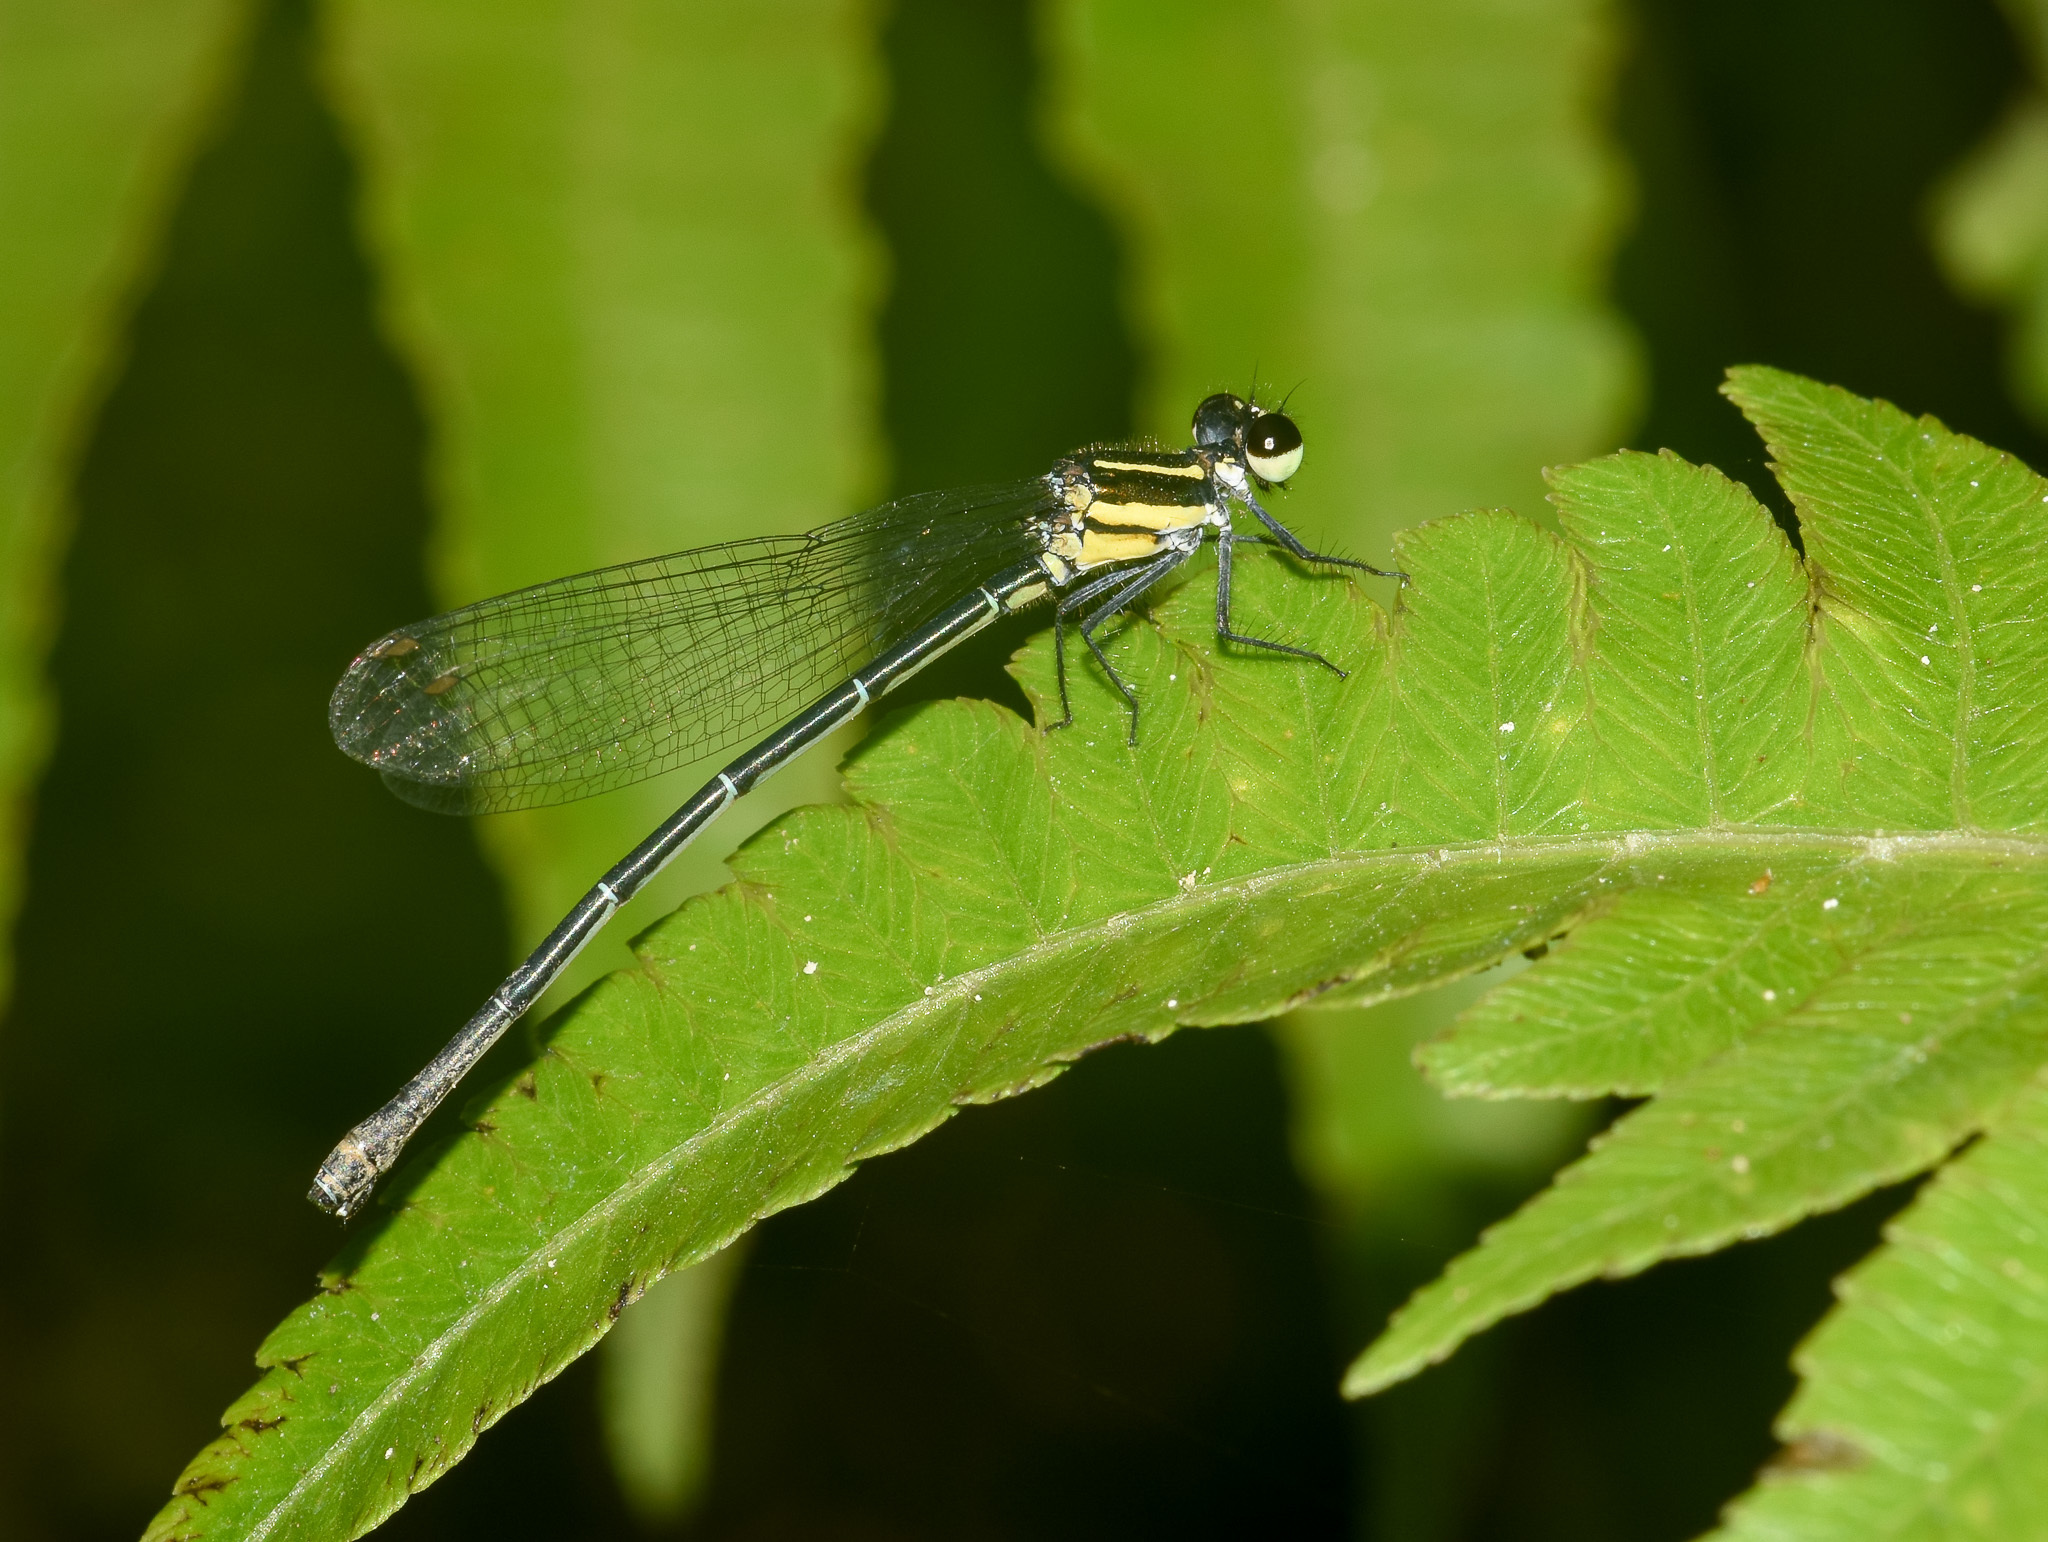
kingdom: Animalia
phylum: Arthropoda
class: Insecta
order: Odonata
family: Platycnemididae
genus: Onychargia
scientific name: Onychargia atrocyana
